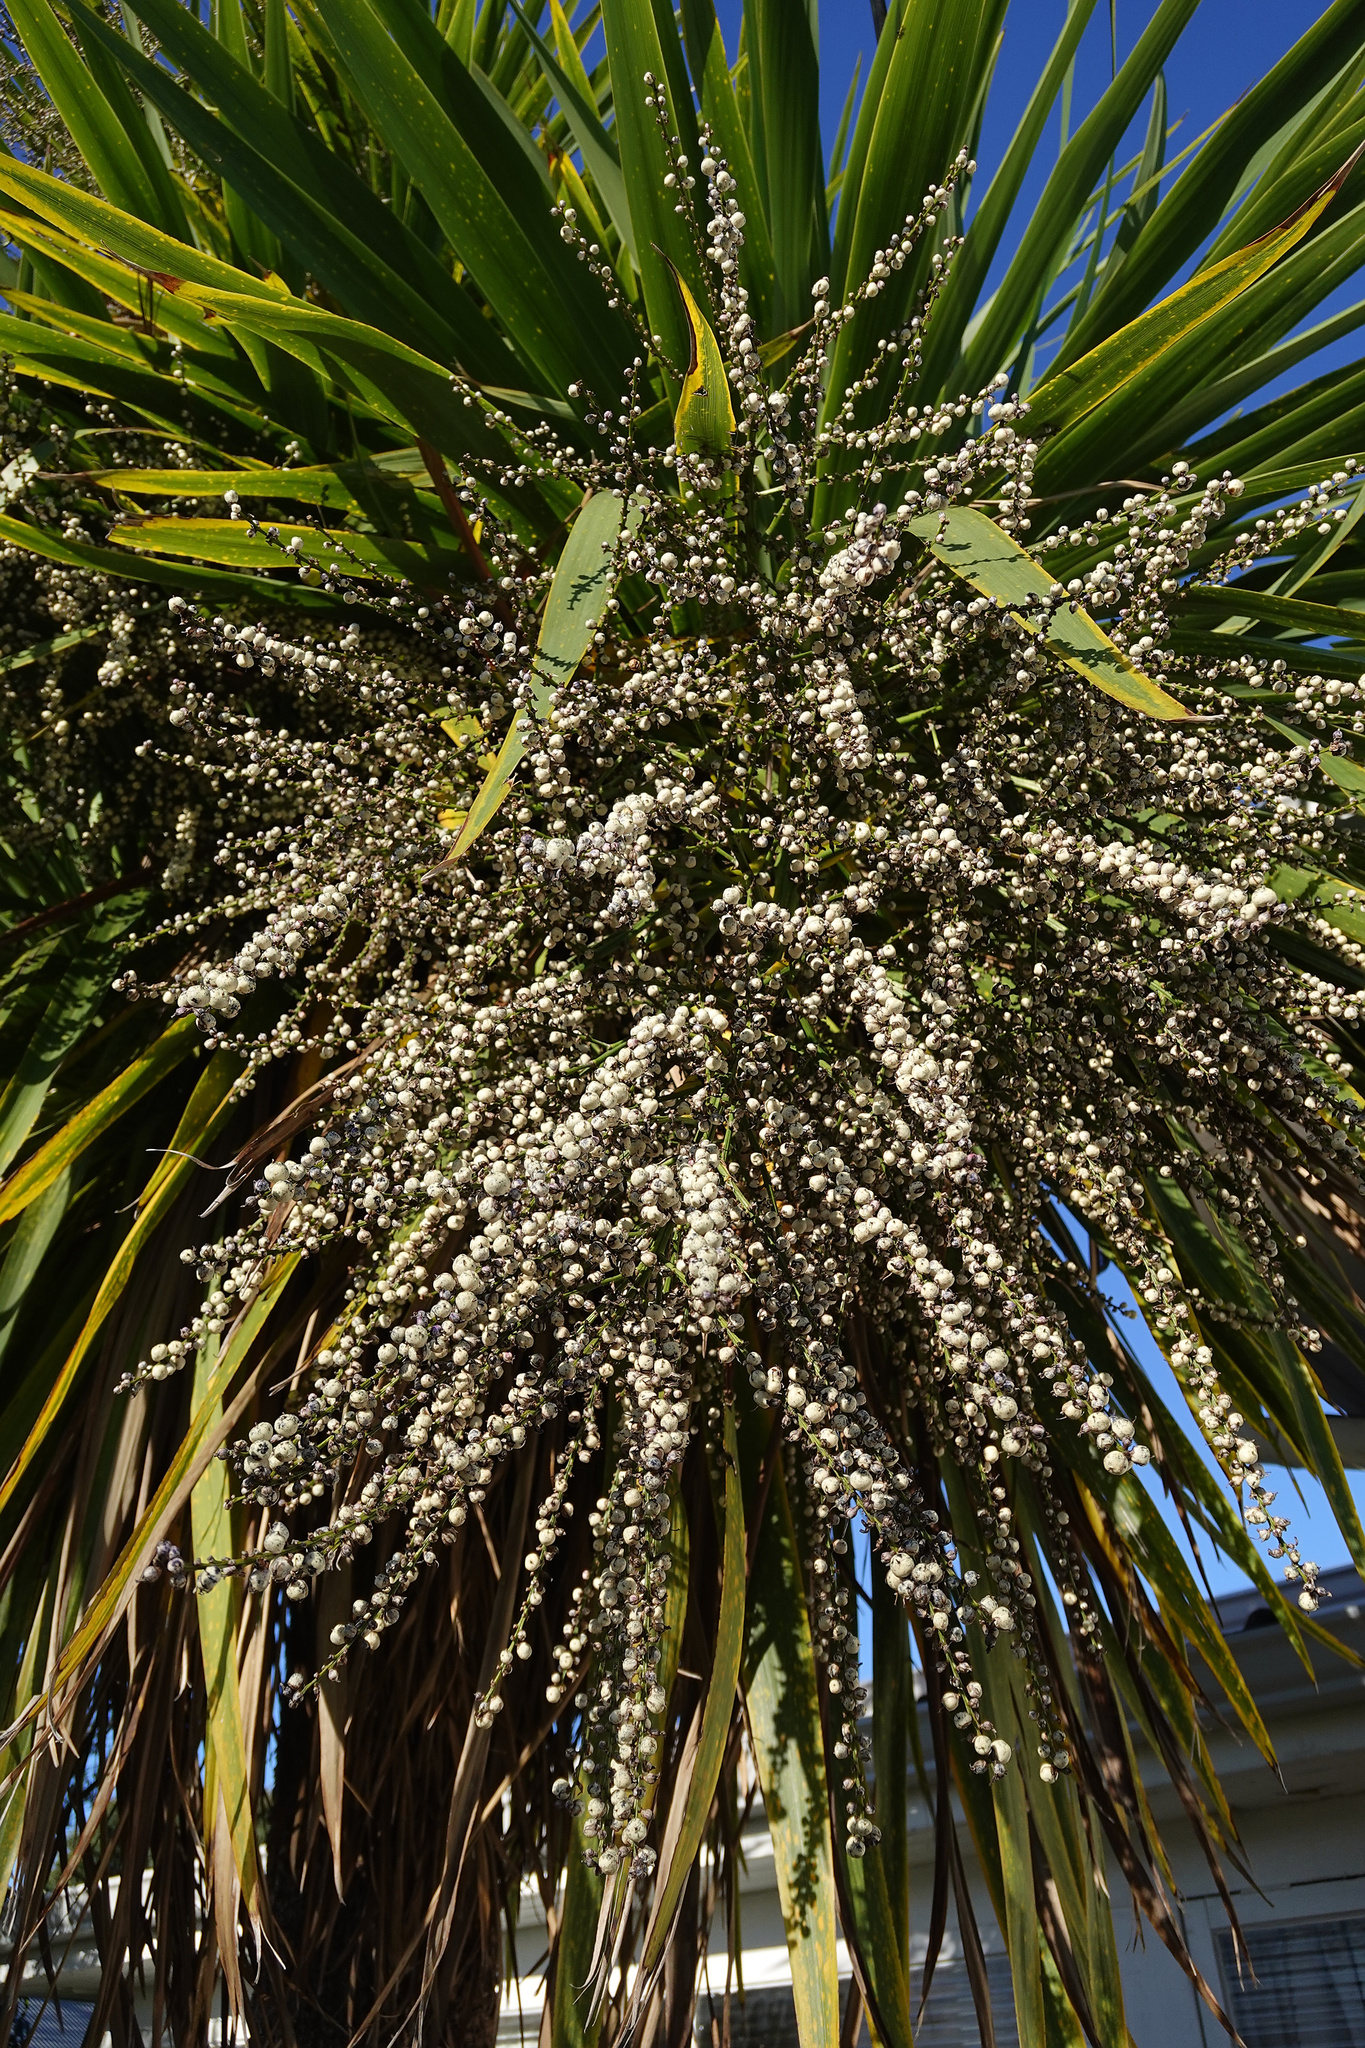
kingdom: Plantae
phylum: Tracheophyta
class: Liliopsida
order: Asparagales
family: Asparagaceae
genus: Cordyline
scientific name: Cordyline australis
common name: Cabbage-palm
